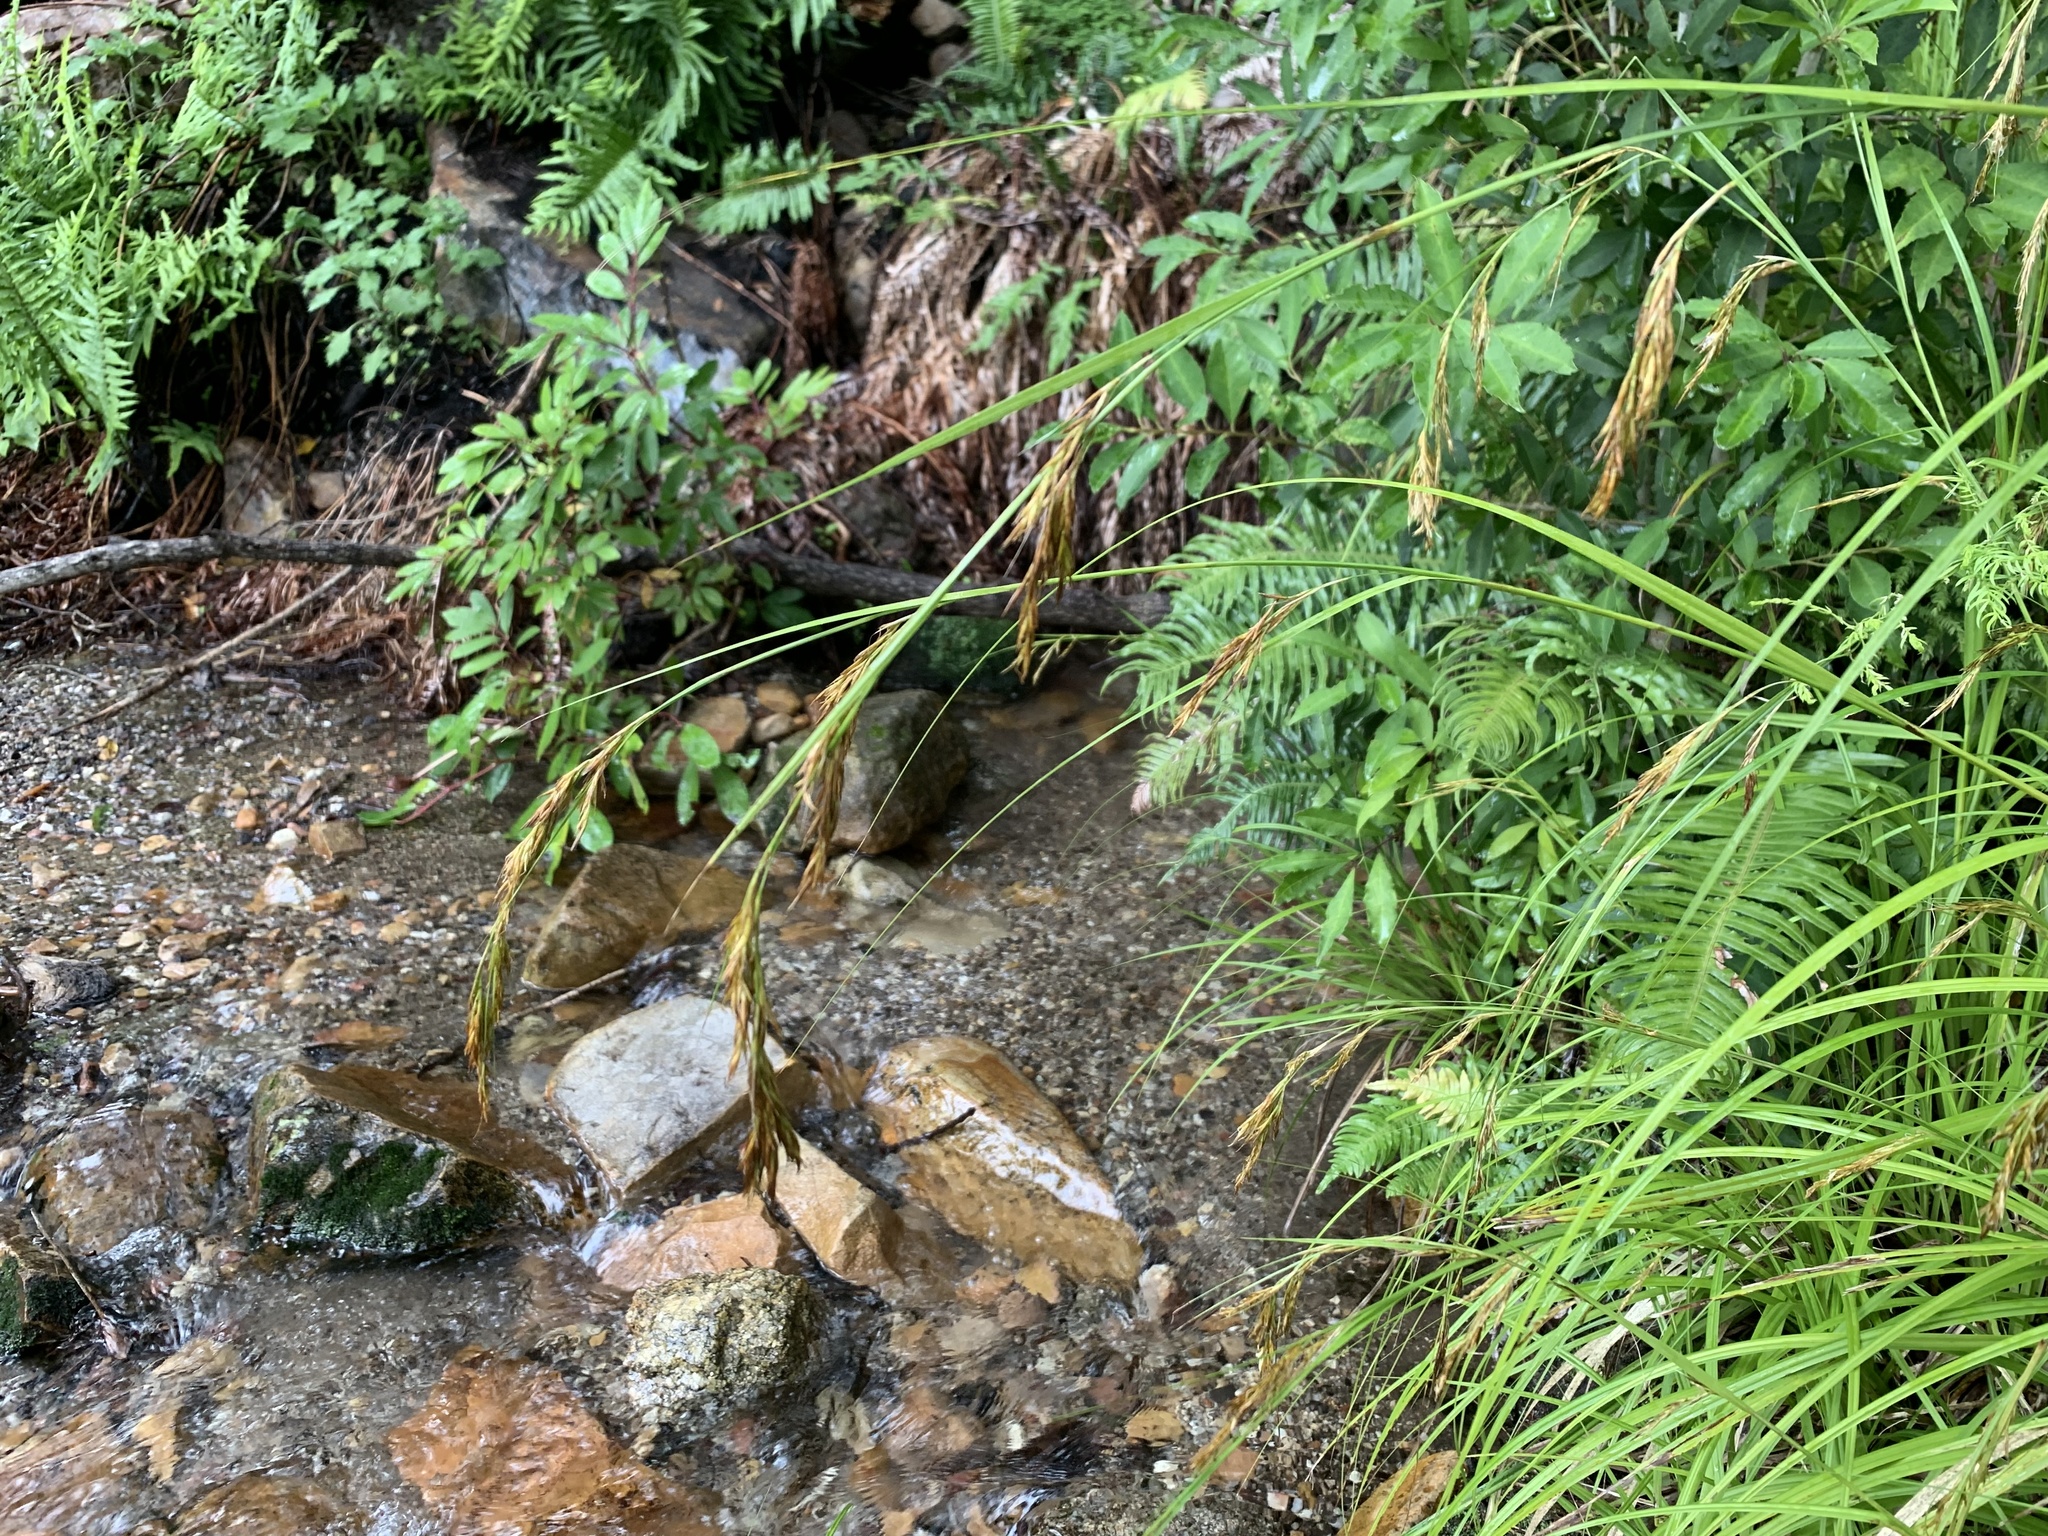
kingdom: Plantae
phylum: Tracheophyta
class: Liliopsida
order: Poales
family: Cyperaceae
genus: Carex
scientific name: Carex lancea
